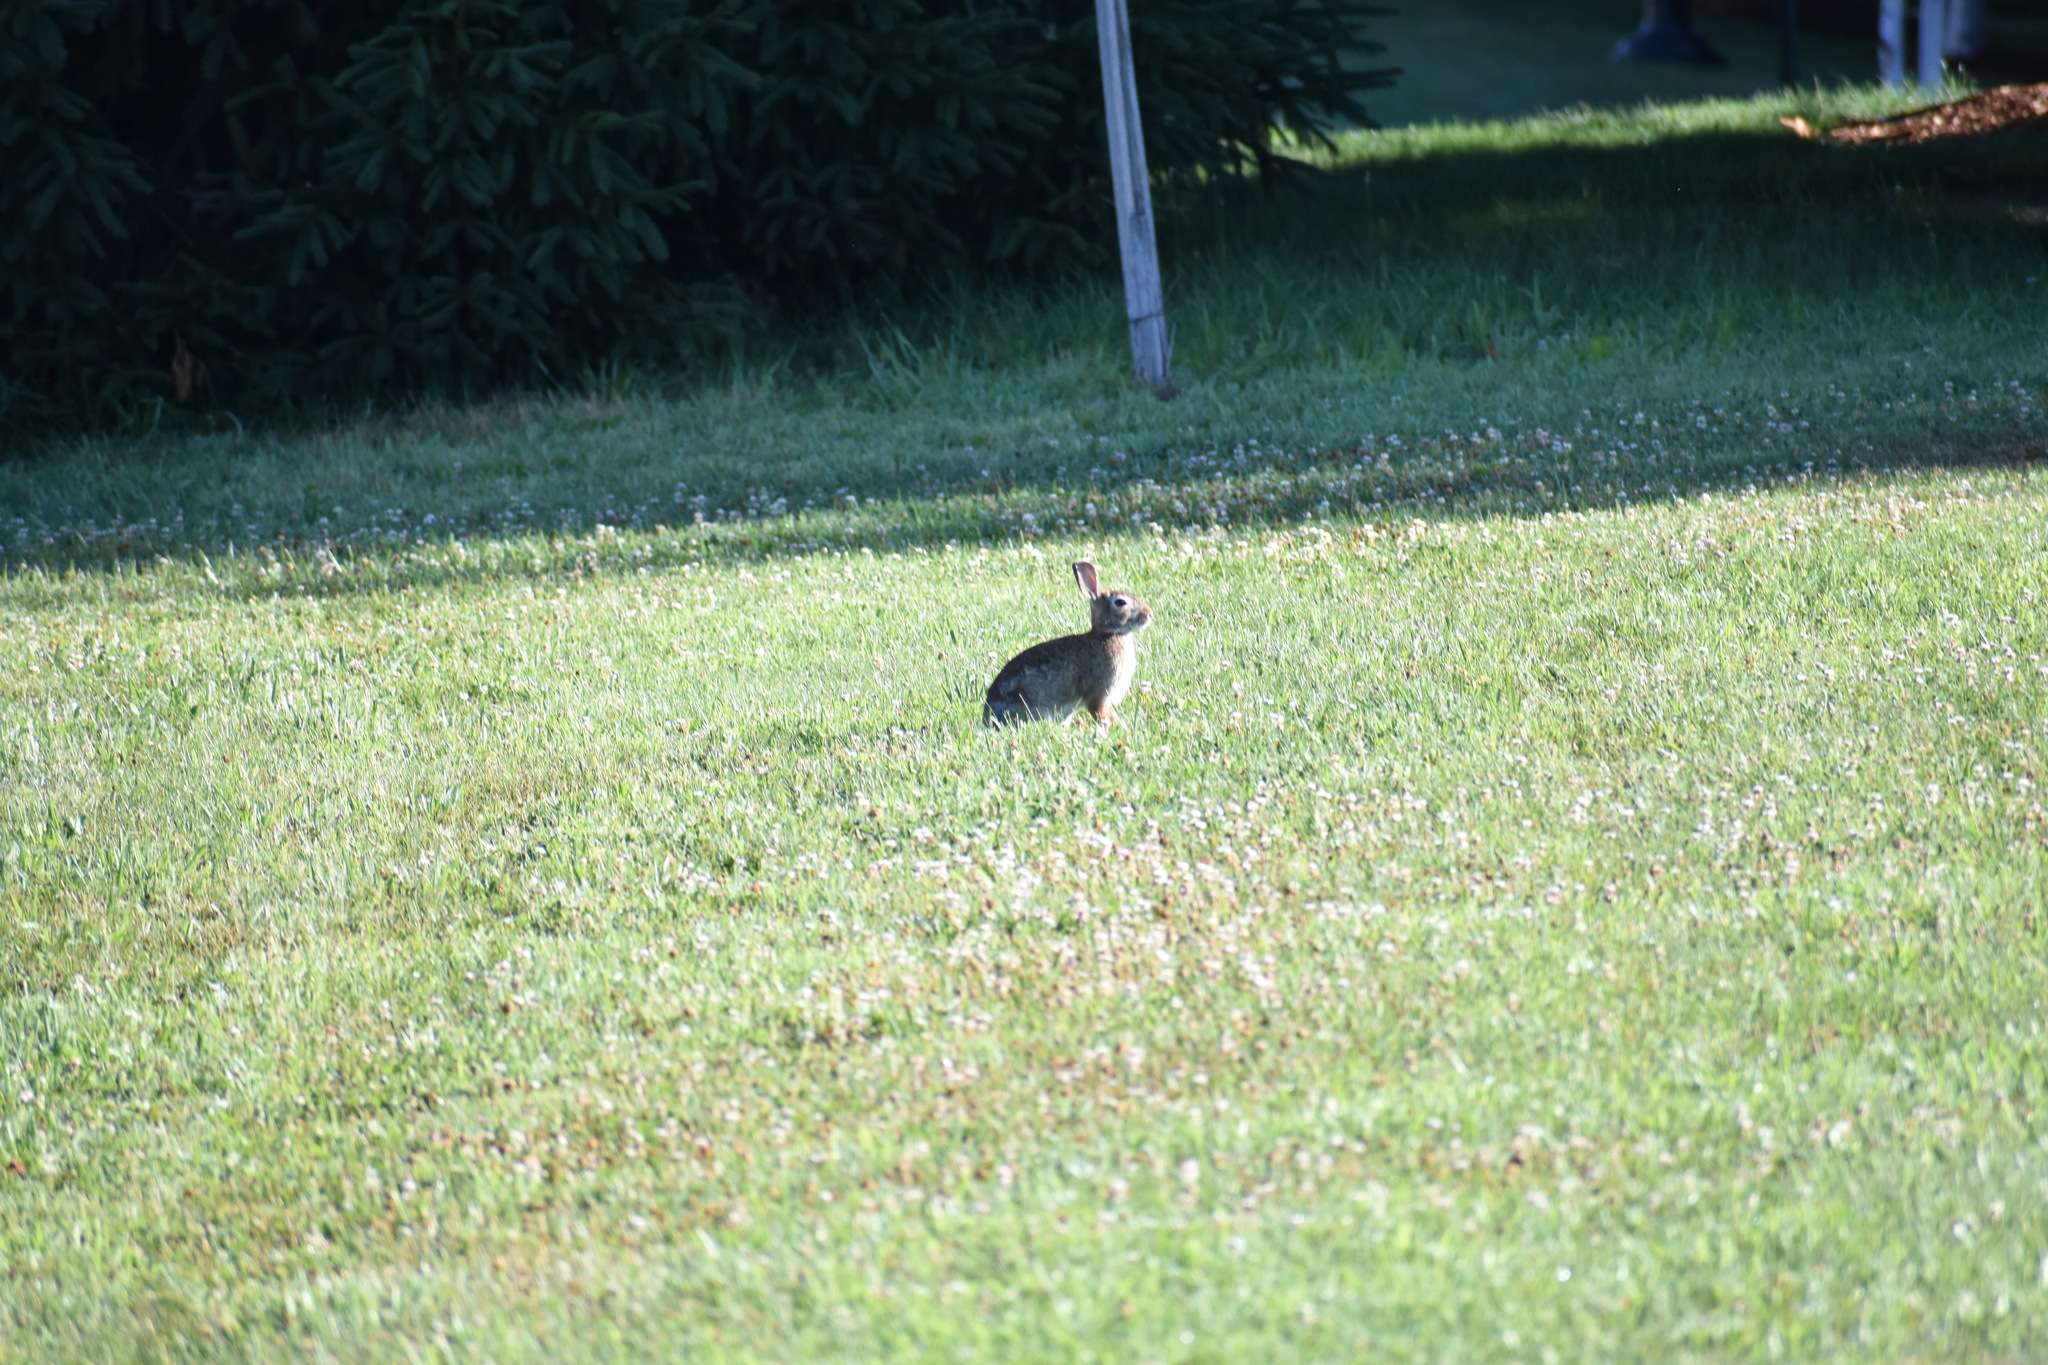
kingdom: Animalia
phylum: Chordata
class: Mammalia
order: Lagomorpha
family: Leporidae
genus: Sylvilagus
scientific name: Sylvilagus floridanus
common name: Eastern cottontail
